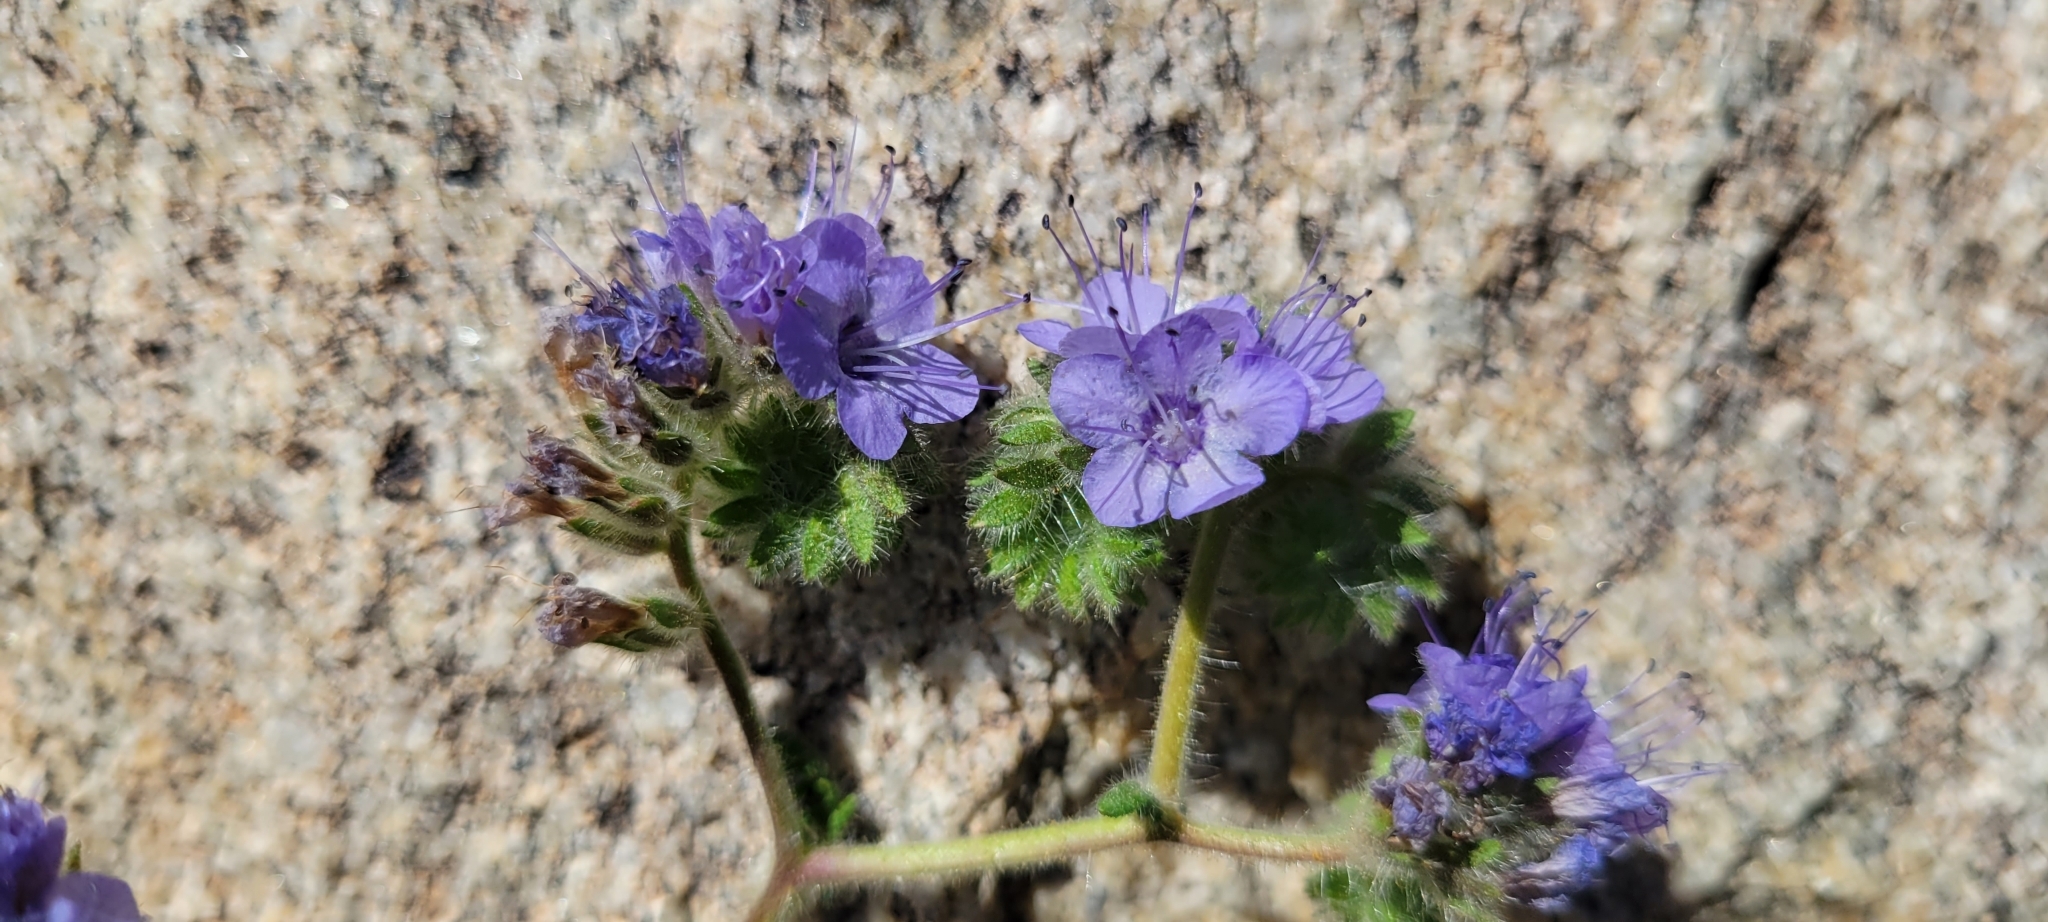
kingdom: Plantae
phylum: Tracheophyta
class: Magnoliopsida
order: Boraginales
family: Hydrophyllaceae
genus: Phacelia
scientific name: Phacelia distans
